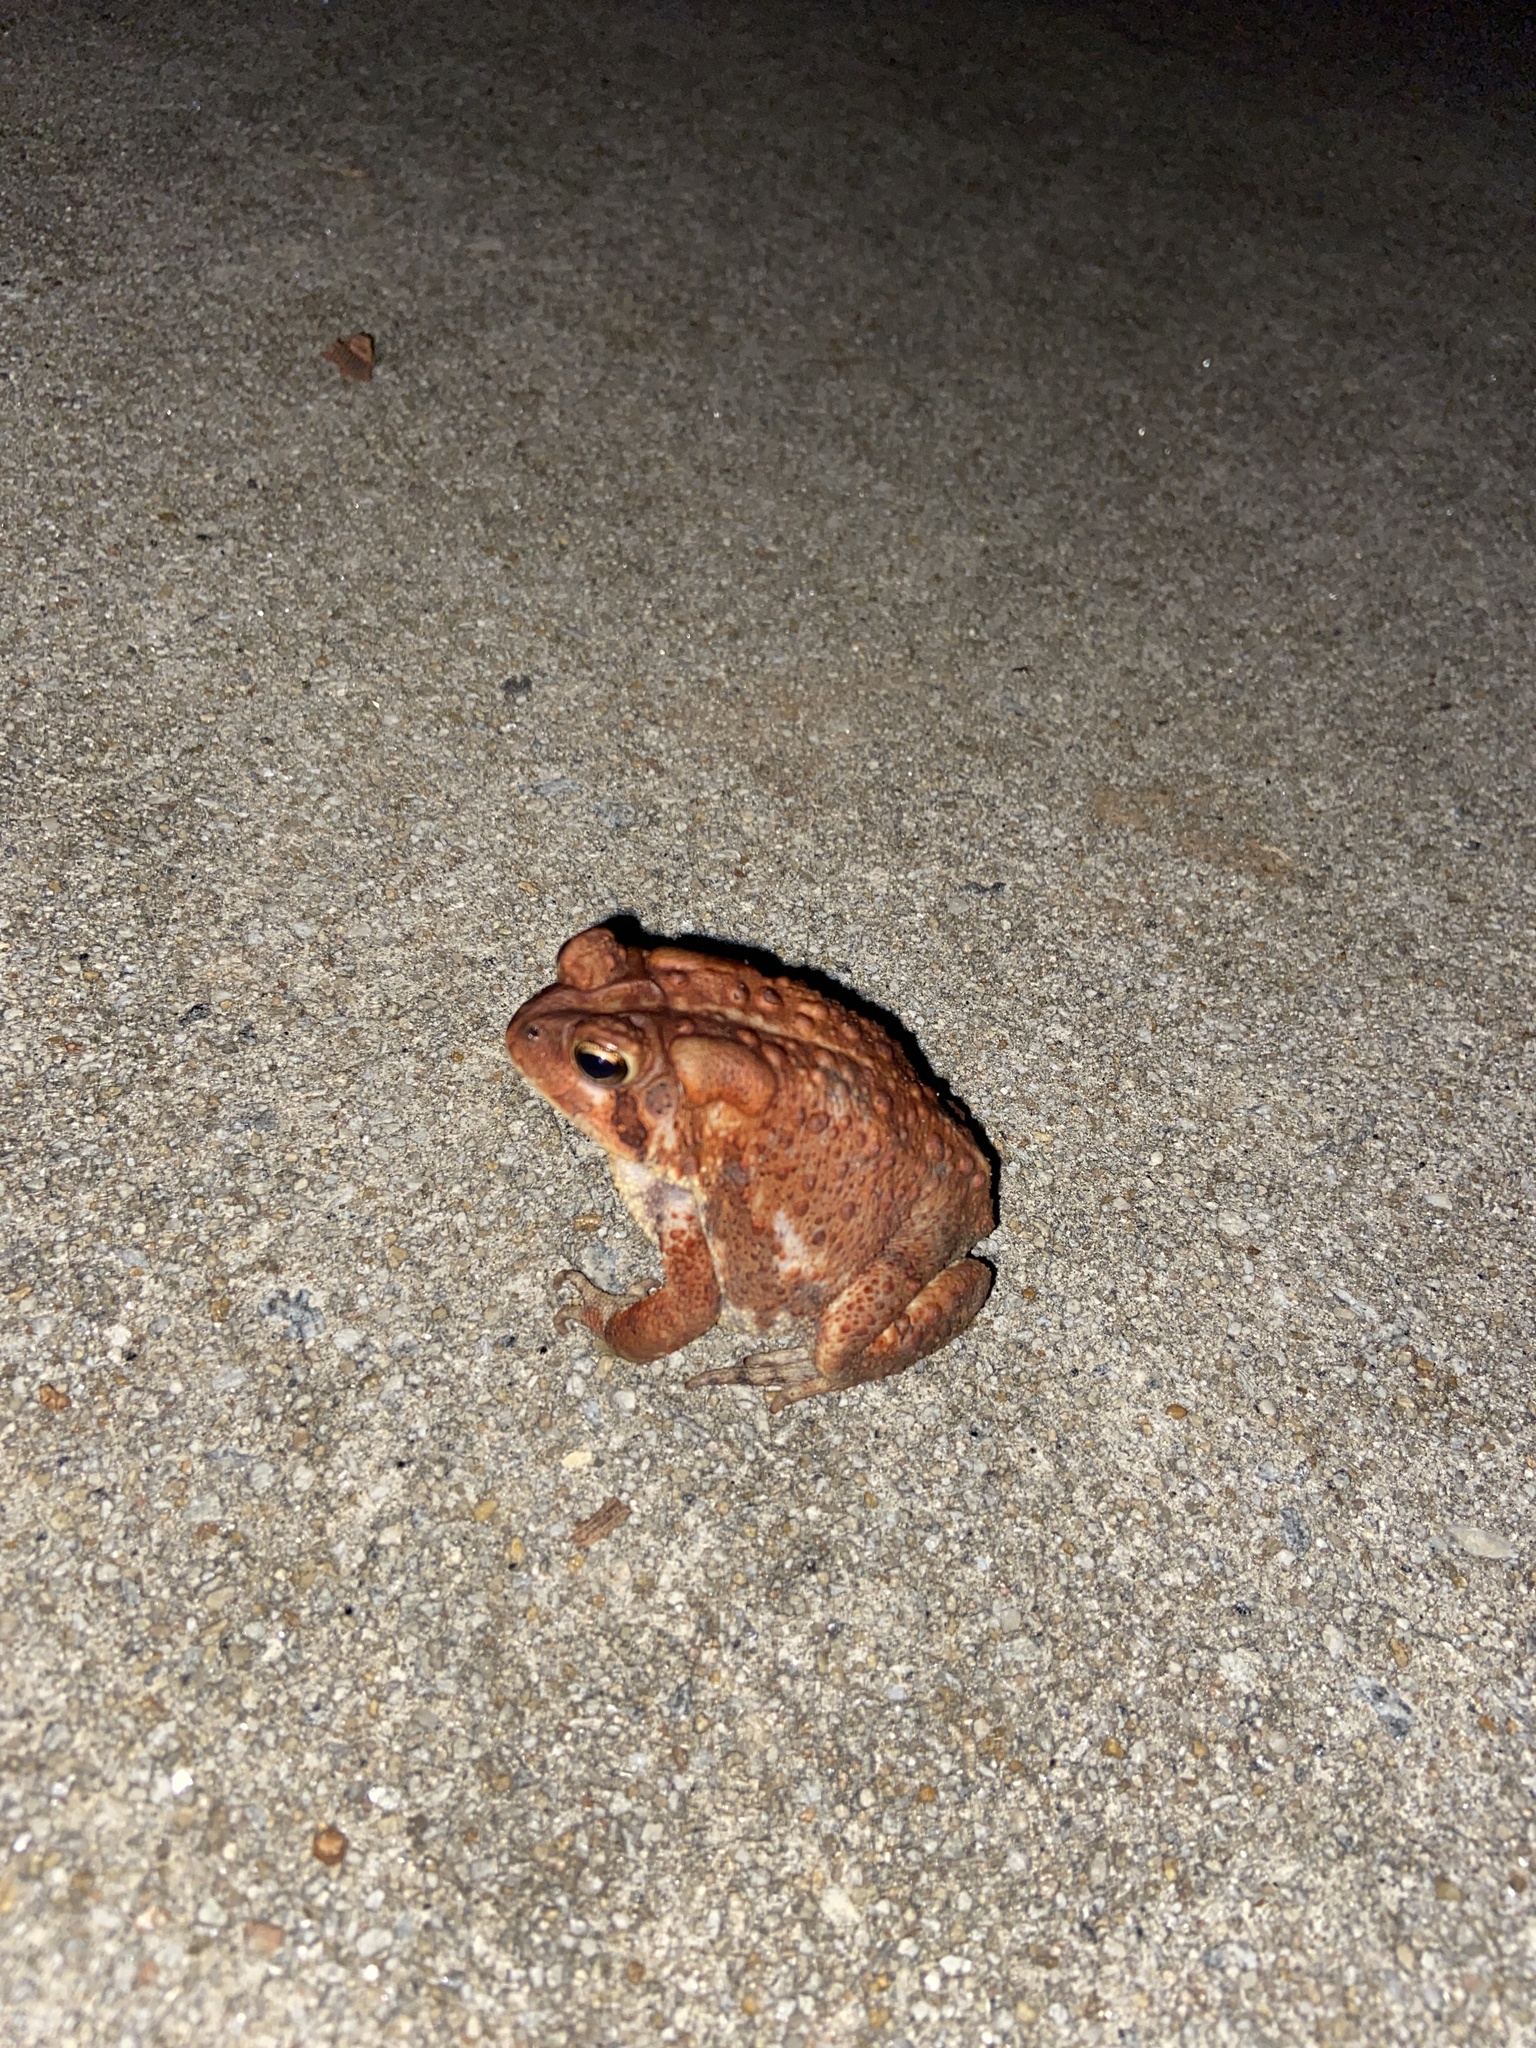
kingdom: Animalia
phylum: Chordata
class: Amphibia
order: Anura
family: Bufonidae
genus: Anaxyrus
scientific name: Anaxyrus americanus
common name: American toad
